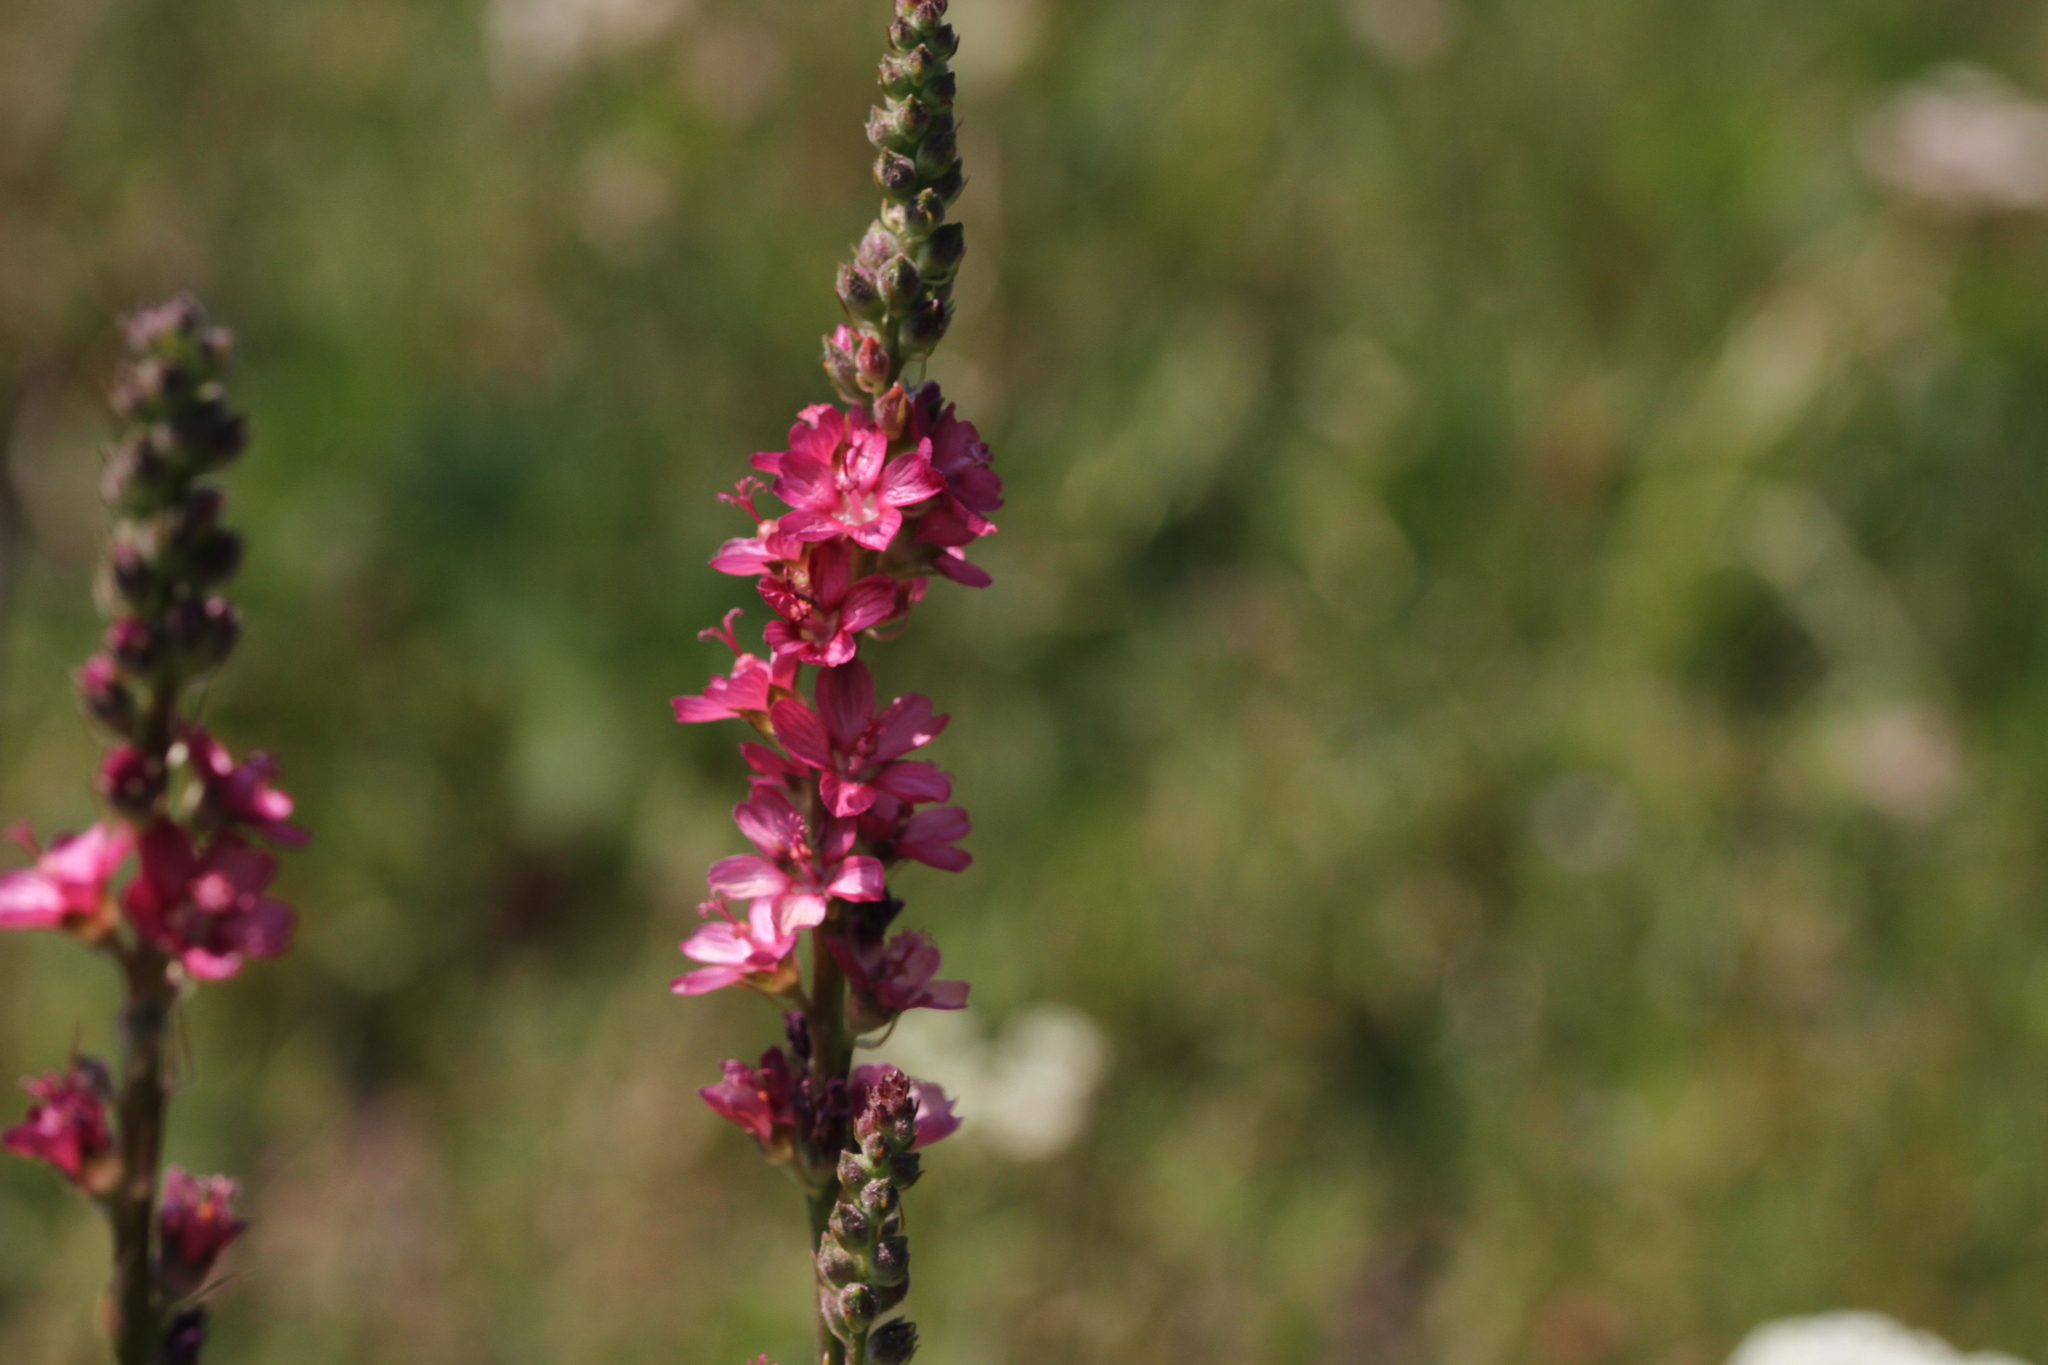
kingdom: Plantae
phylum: Tracheophyta
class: Magnoliopsida
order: Malvales
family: Malvaceae
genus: Sidalcea
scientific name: Sidalcea oregana
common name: Oregon checker-mallow
